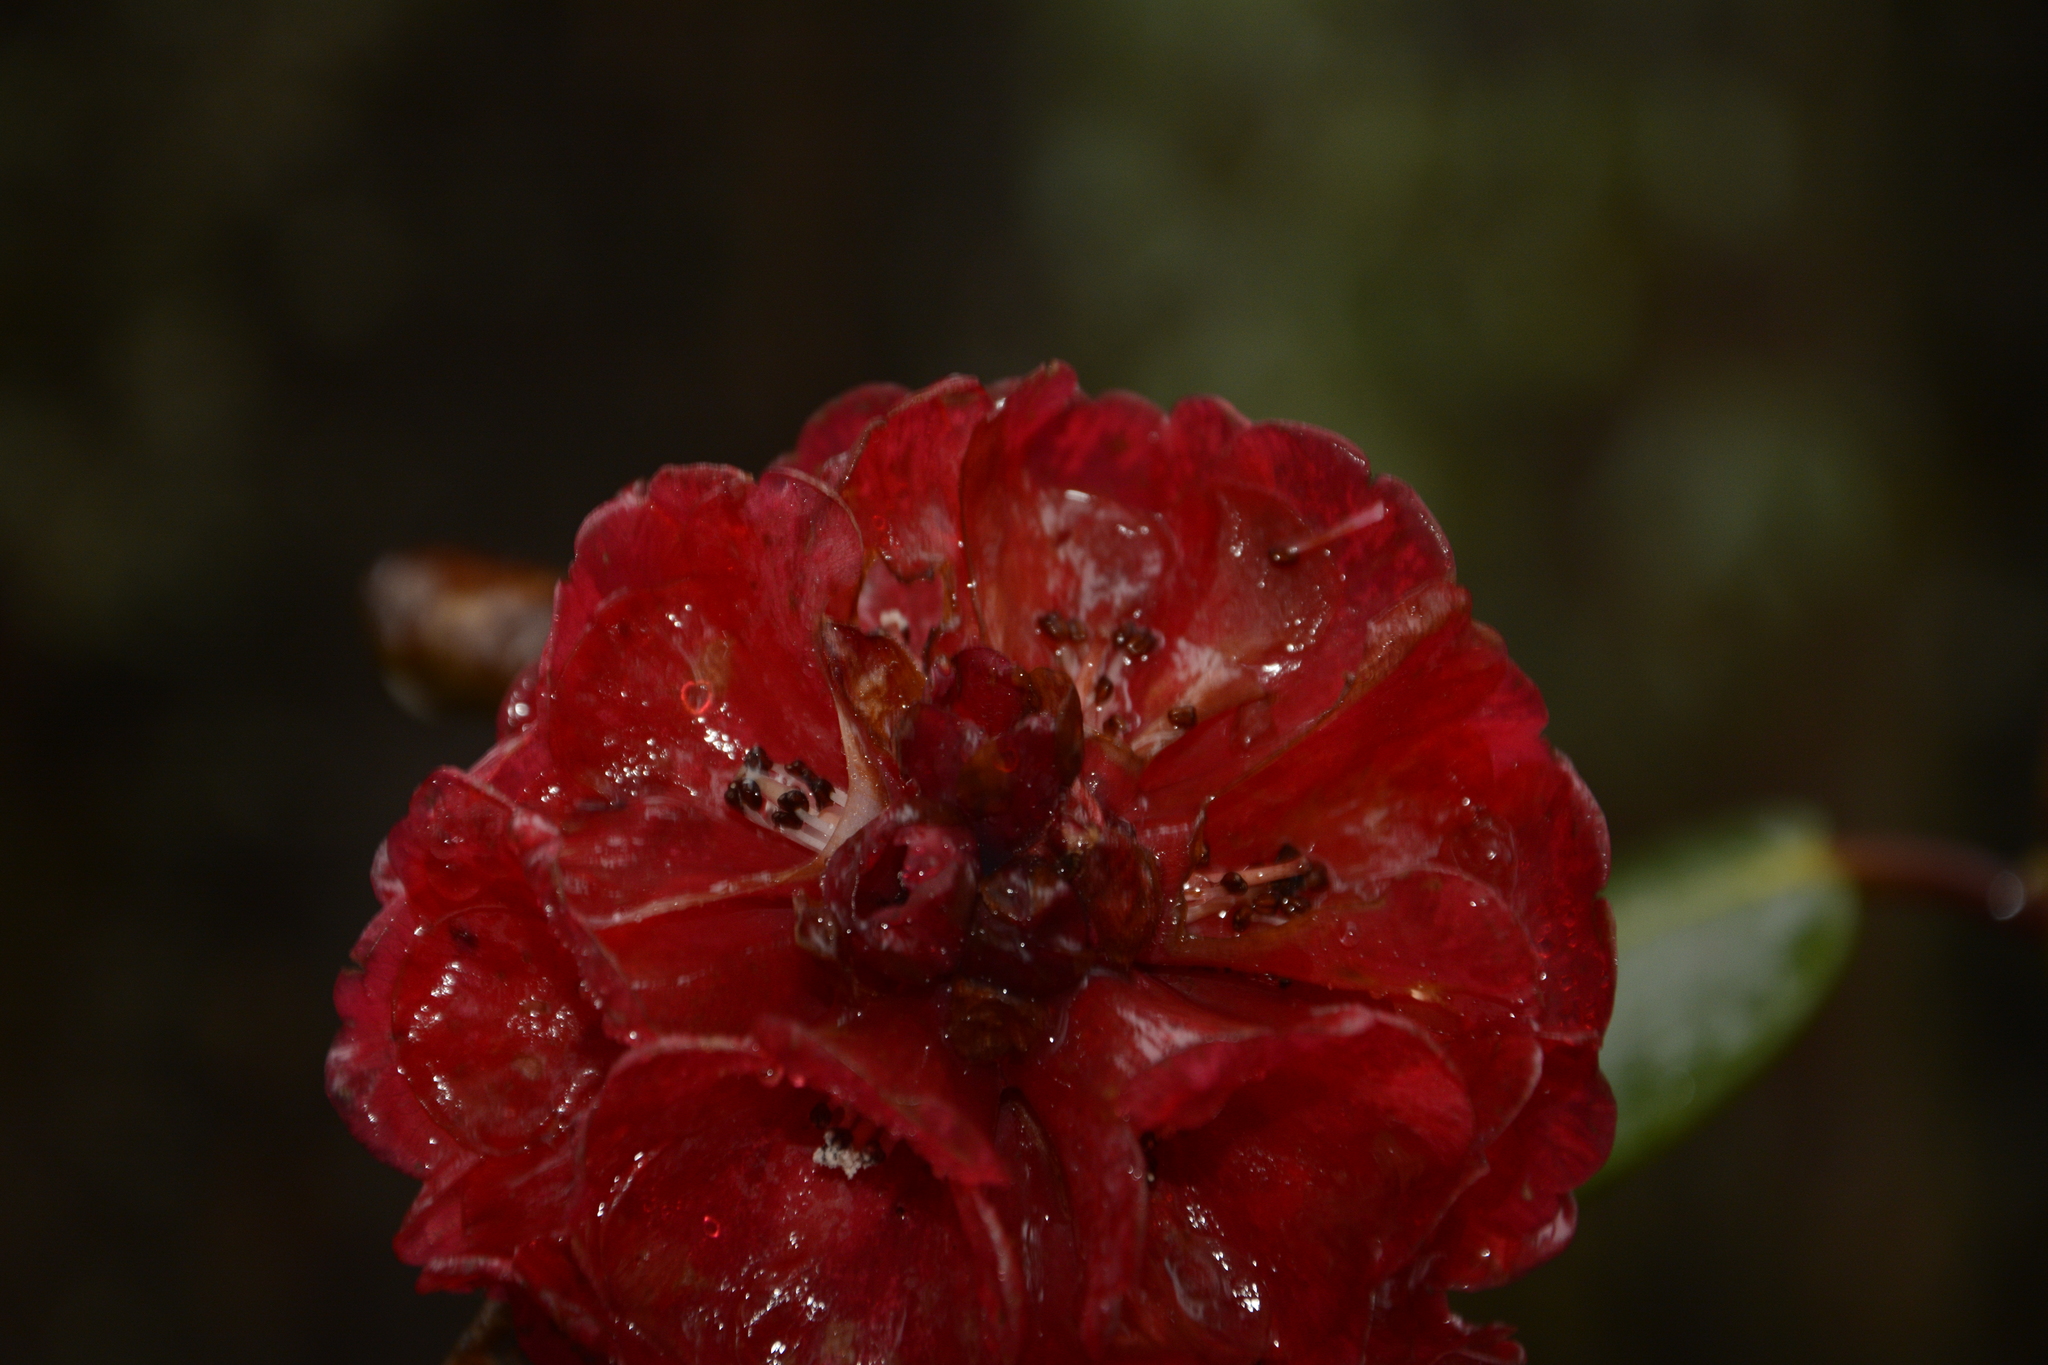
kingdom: Plantae
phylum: Tracheophyta
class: Magnoliopsida
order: Ericales
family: Ericaceae
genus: Rhododendron
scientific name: Rhododendron fulgens
